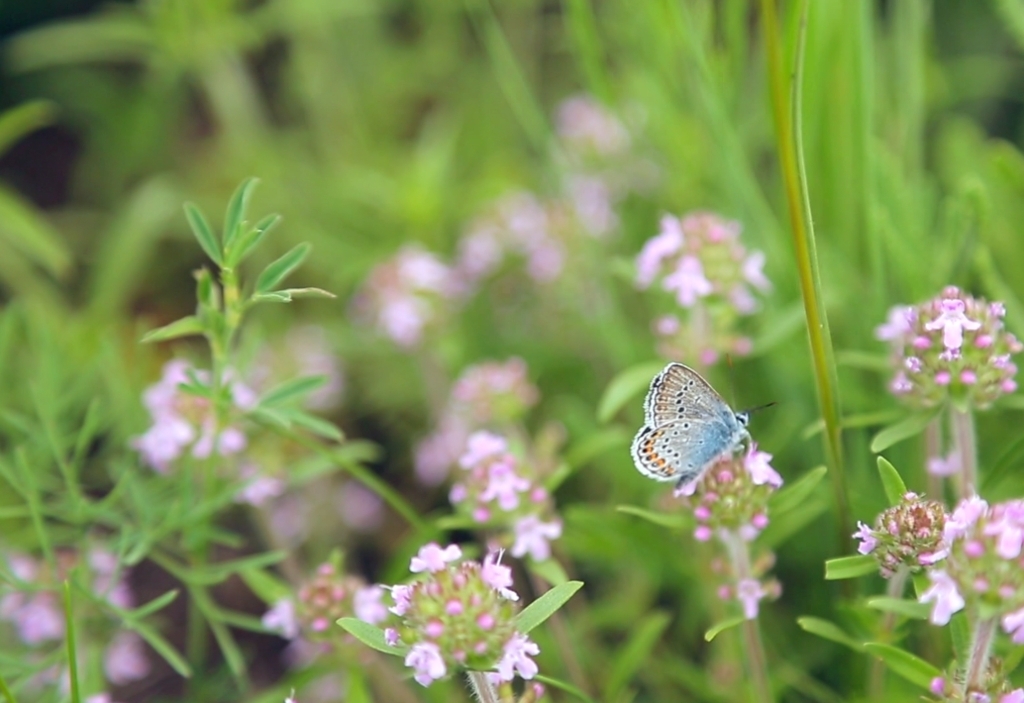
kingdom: Animalia
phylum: Arthropoda
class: Insecta
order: Lepidoptera
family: Lycaenidae
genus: Plebejus
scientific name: Plebejus argus
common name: Silver-studded blue
